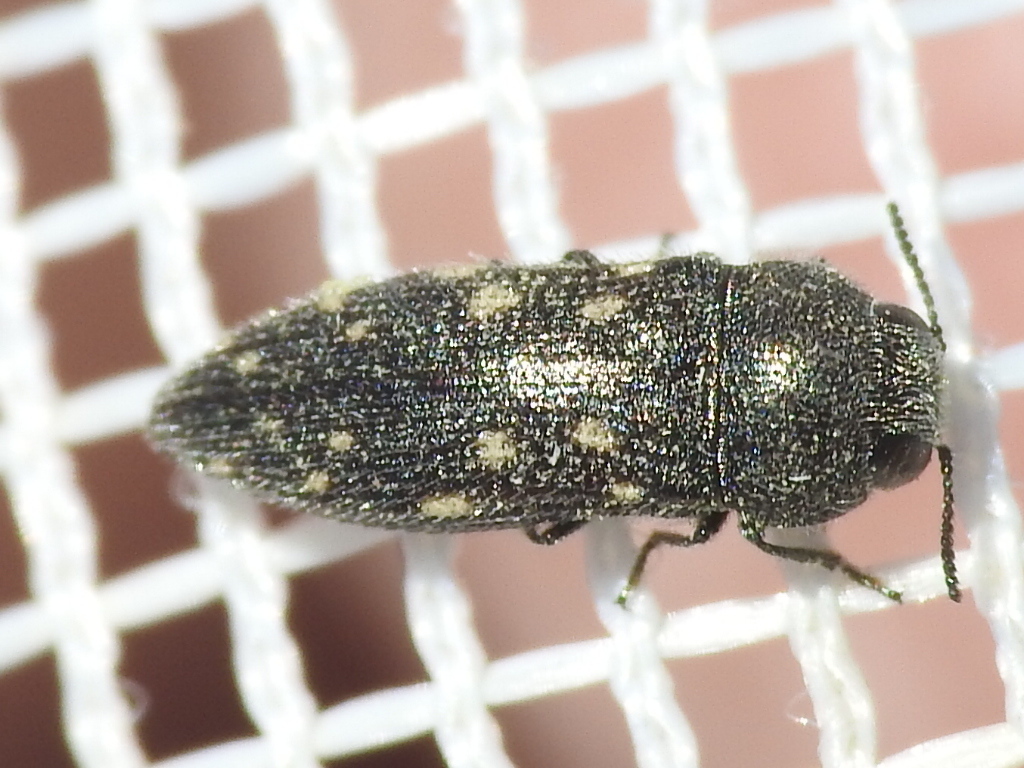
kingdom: Animalia
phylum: Arthropoda
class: Insecta
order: Coleoptera
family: Buprestidae
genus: Acmaeodera
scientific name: Acmaeodera tubulus
